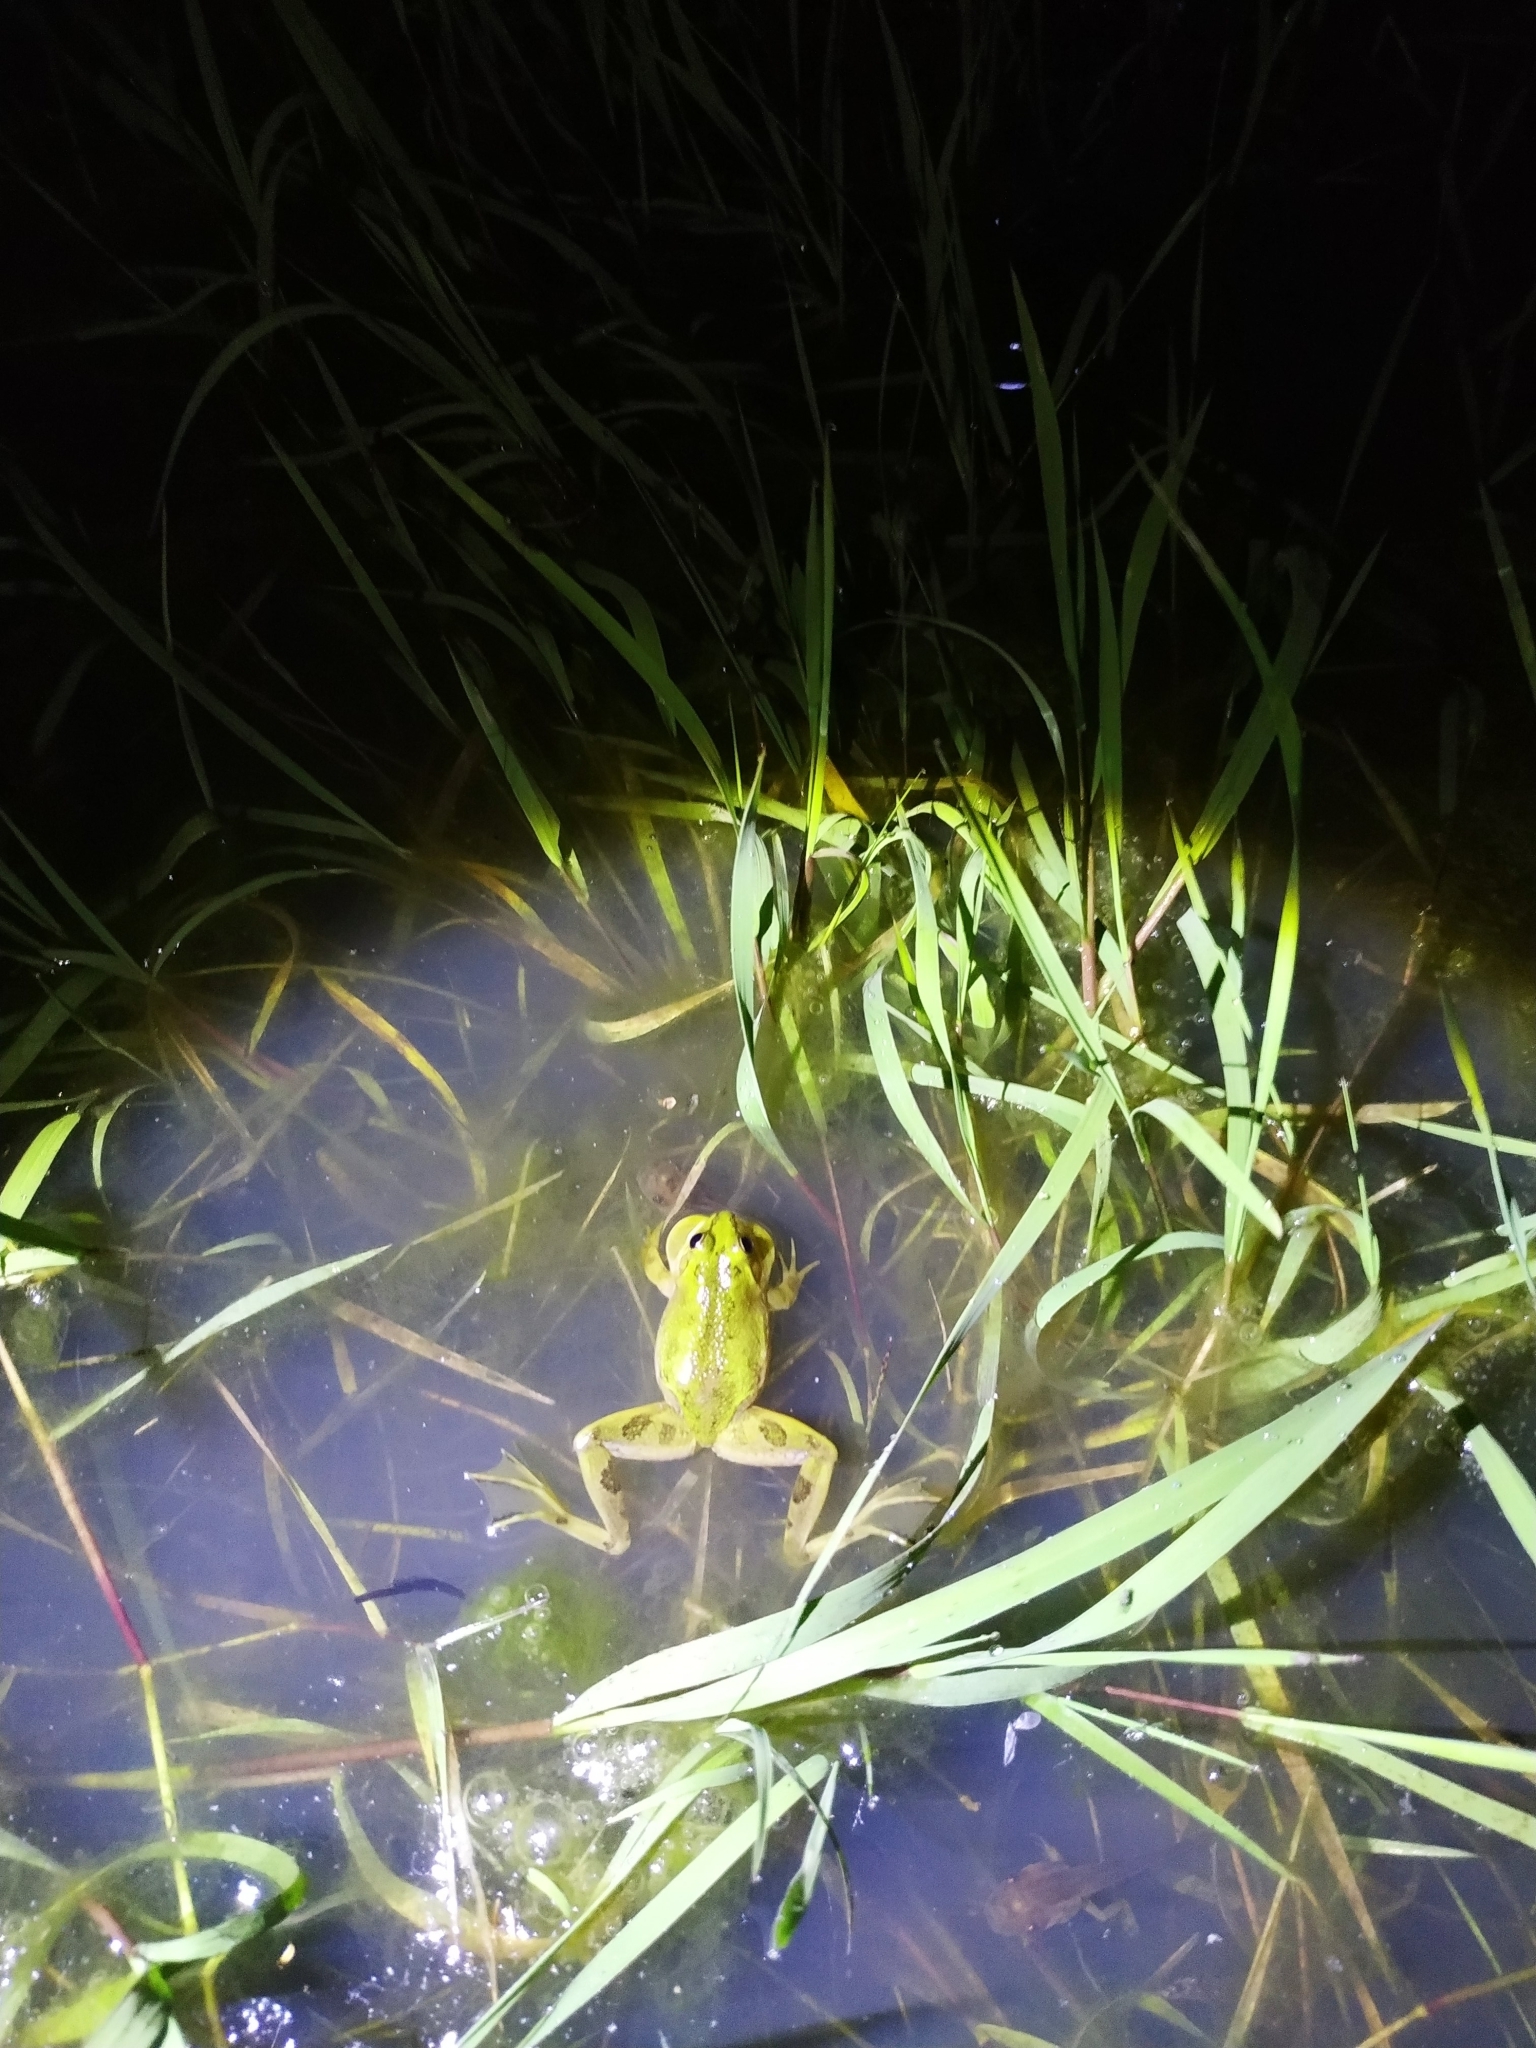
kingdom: Animalia
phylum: Chordata
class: Amphibia
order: Anura
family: Hylidae
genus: Pseudis
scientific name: Pseudis minuta
